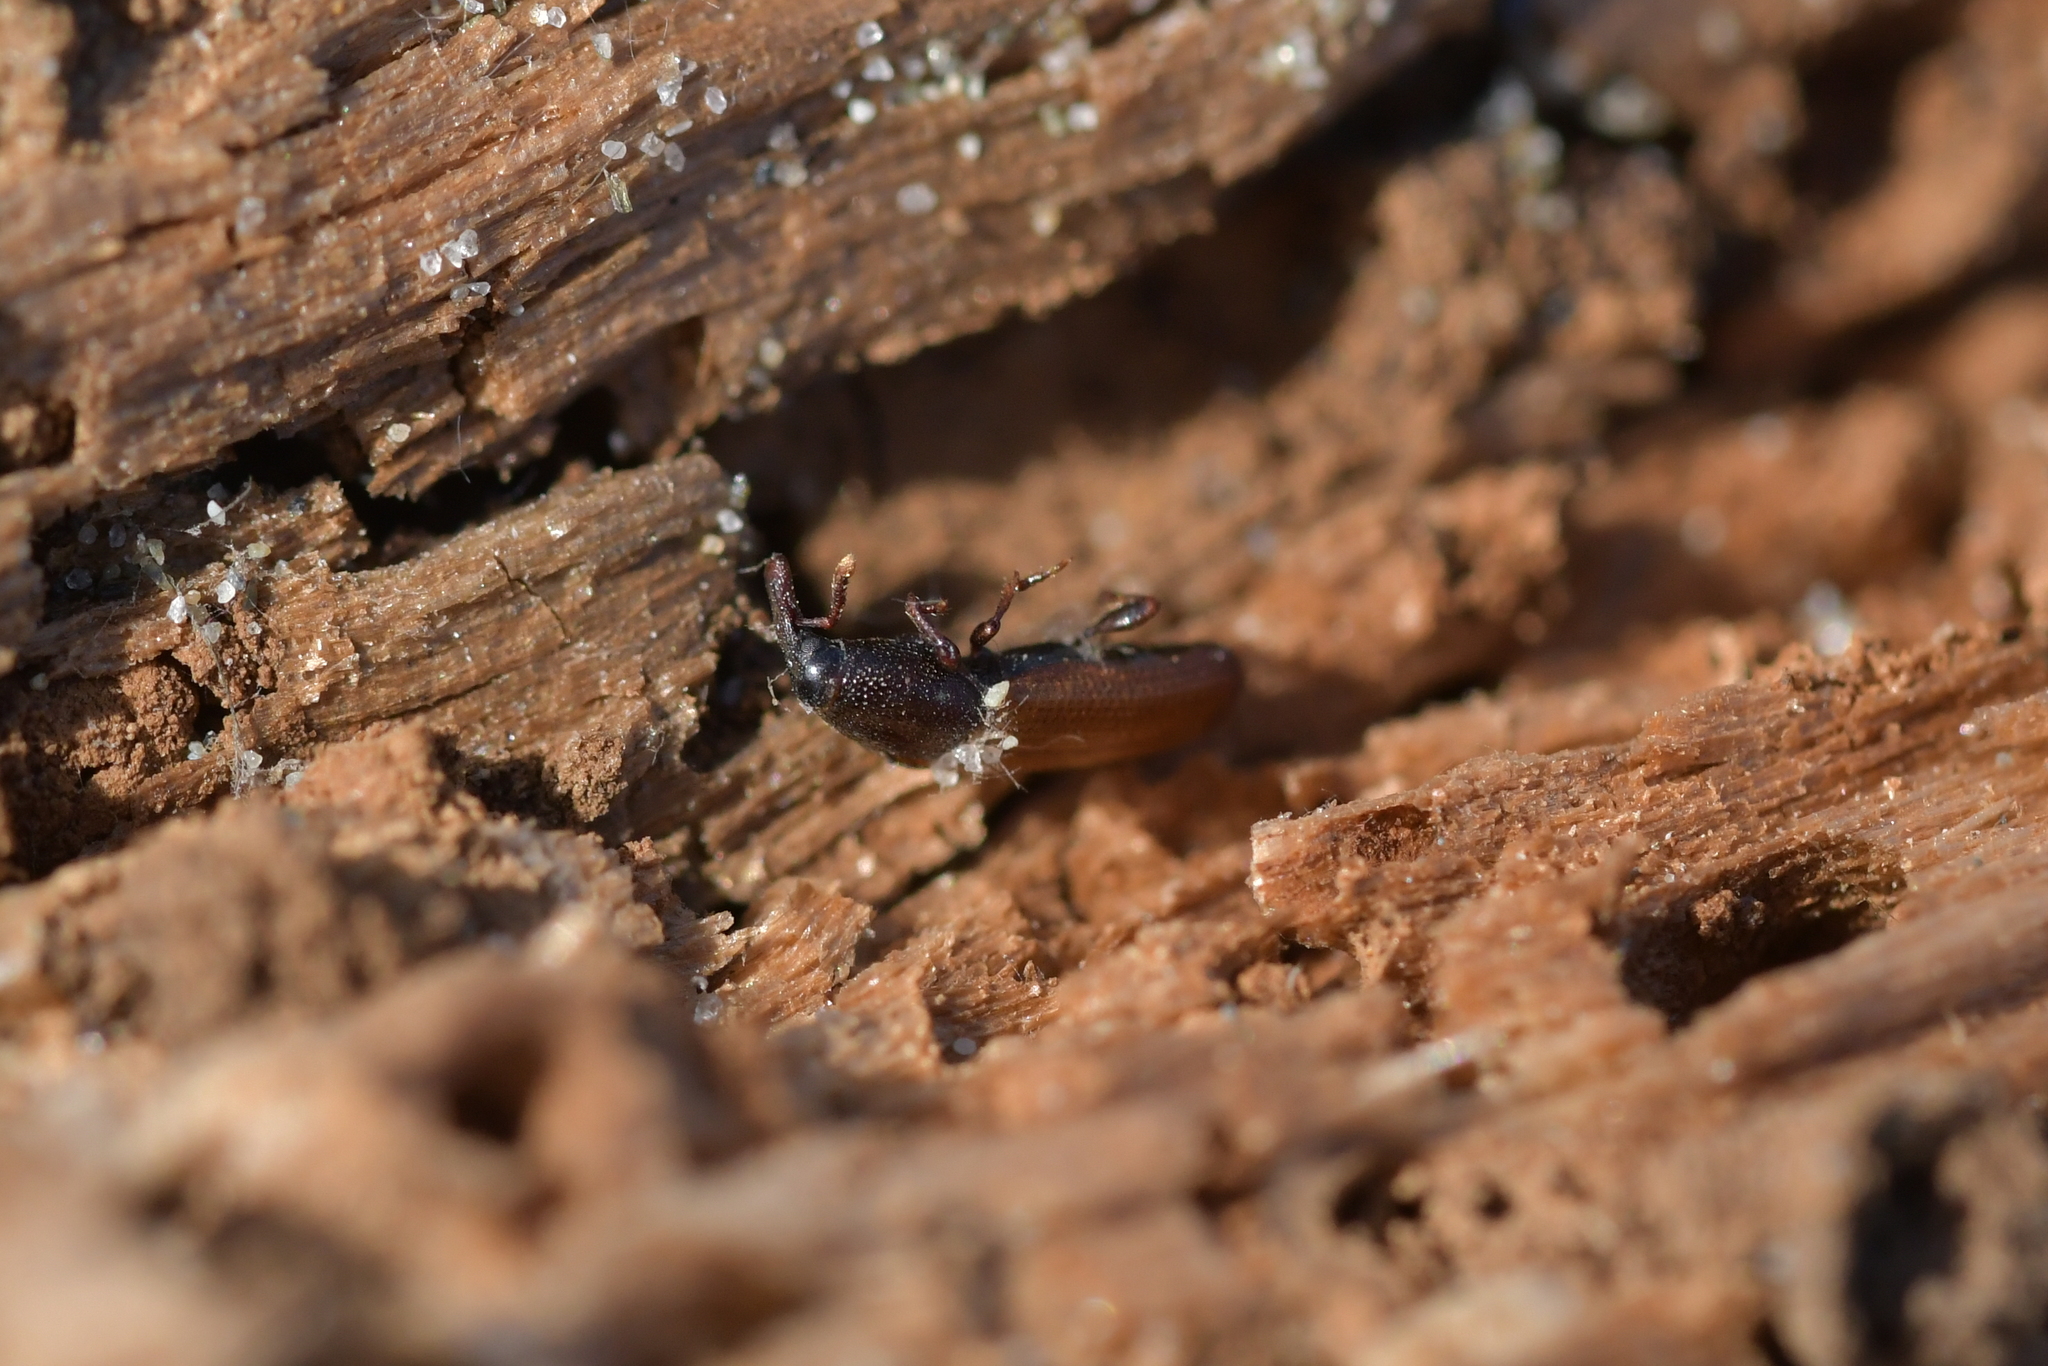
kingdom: Animalia
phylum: Arthropoda
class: Insecta
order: Coleoptera
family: Curculionidae
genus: Mesites
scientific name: Mesites pallidipennis
